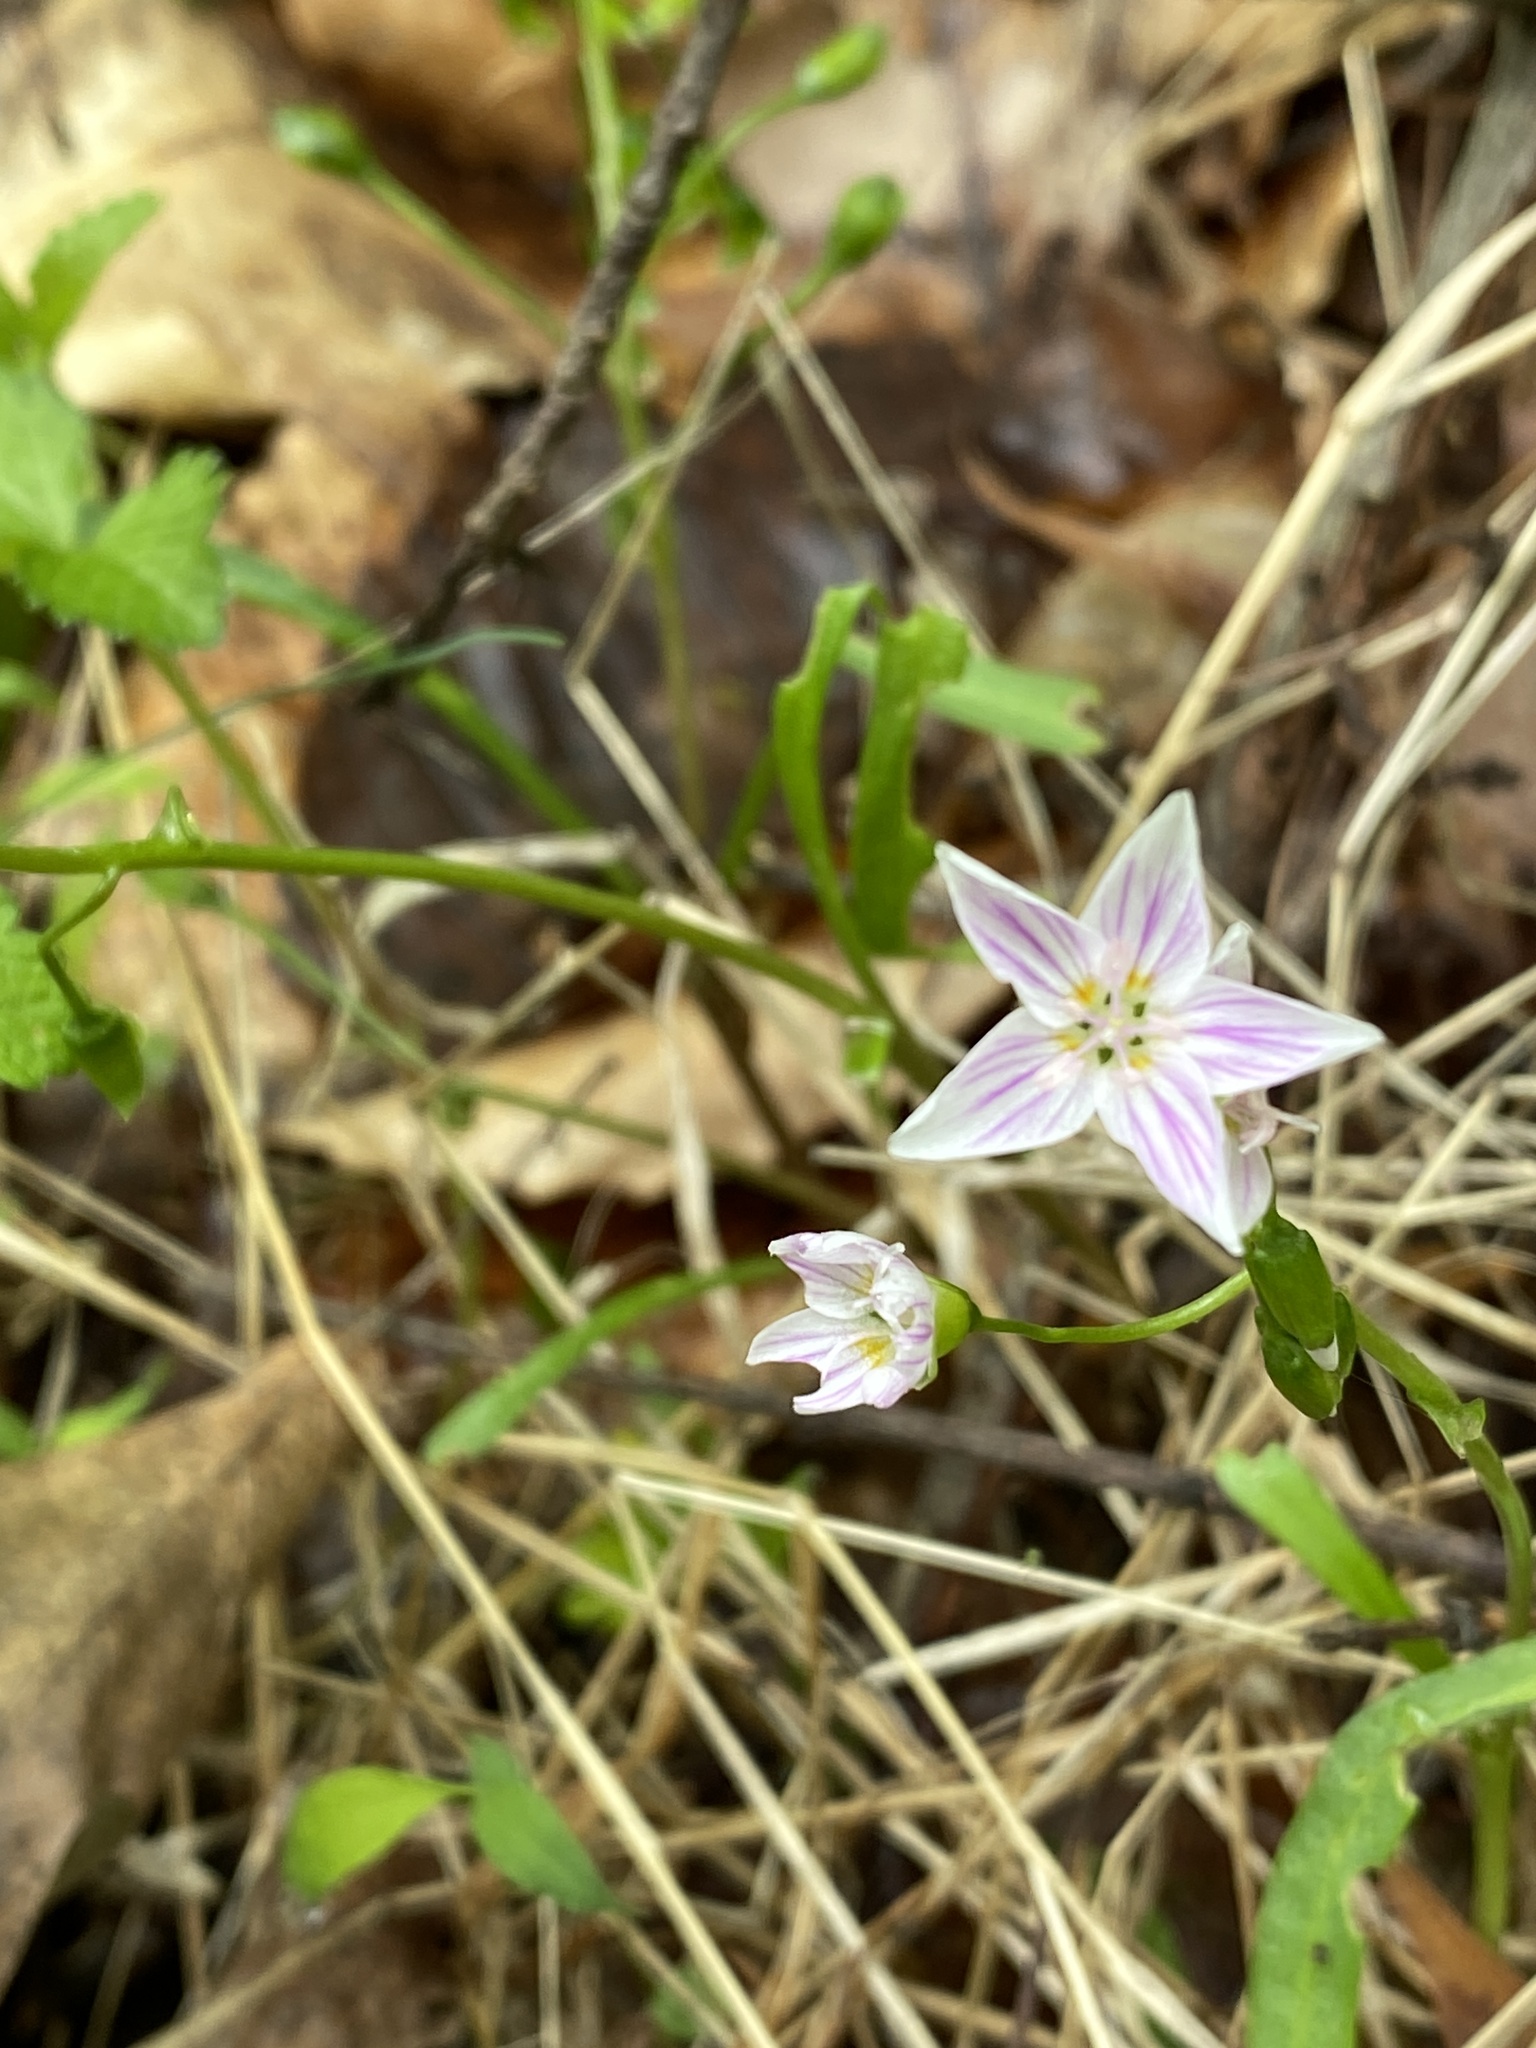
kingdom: Plantae
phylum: Tracheophyta
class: Magnoliopsida
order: Caryophyllales
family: Montiaceae
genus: Claytonia
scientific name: Claytonia virginica
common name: Virginia springbeauty
